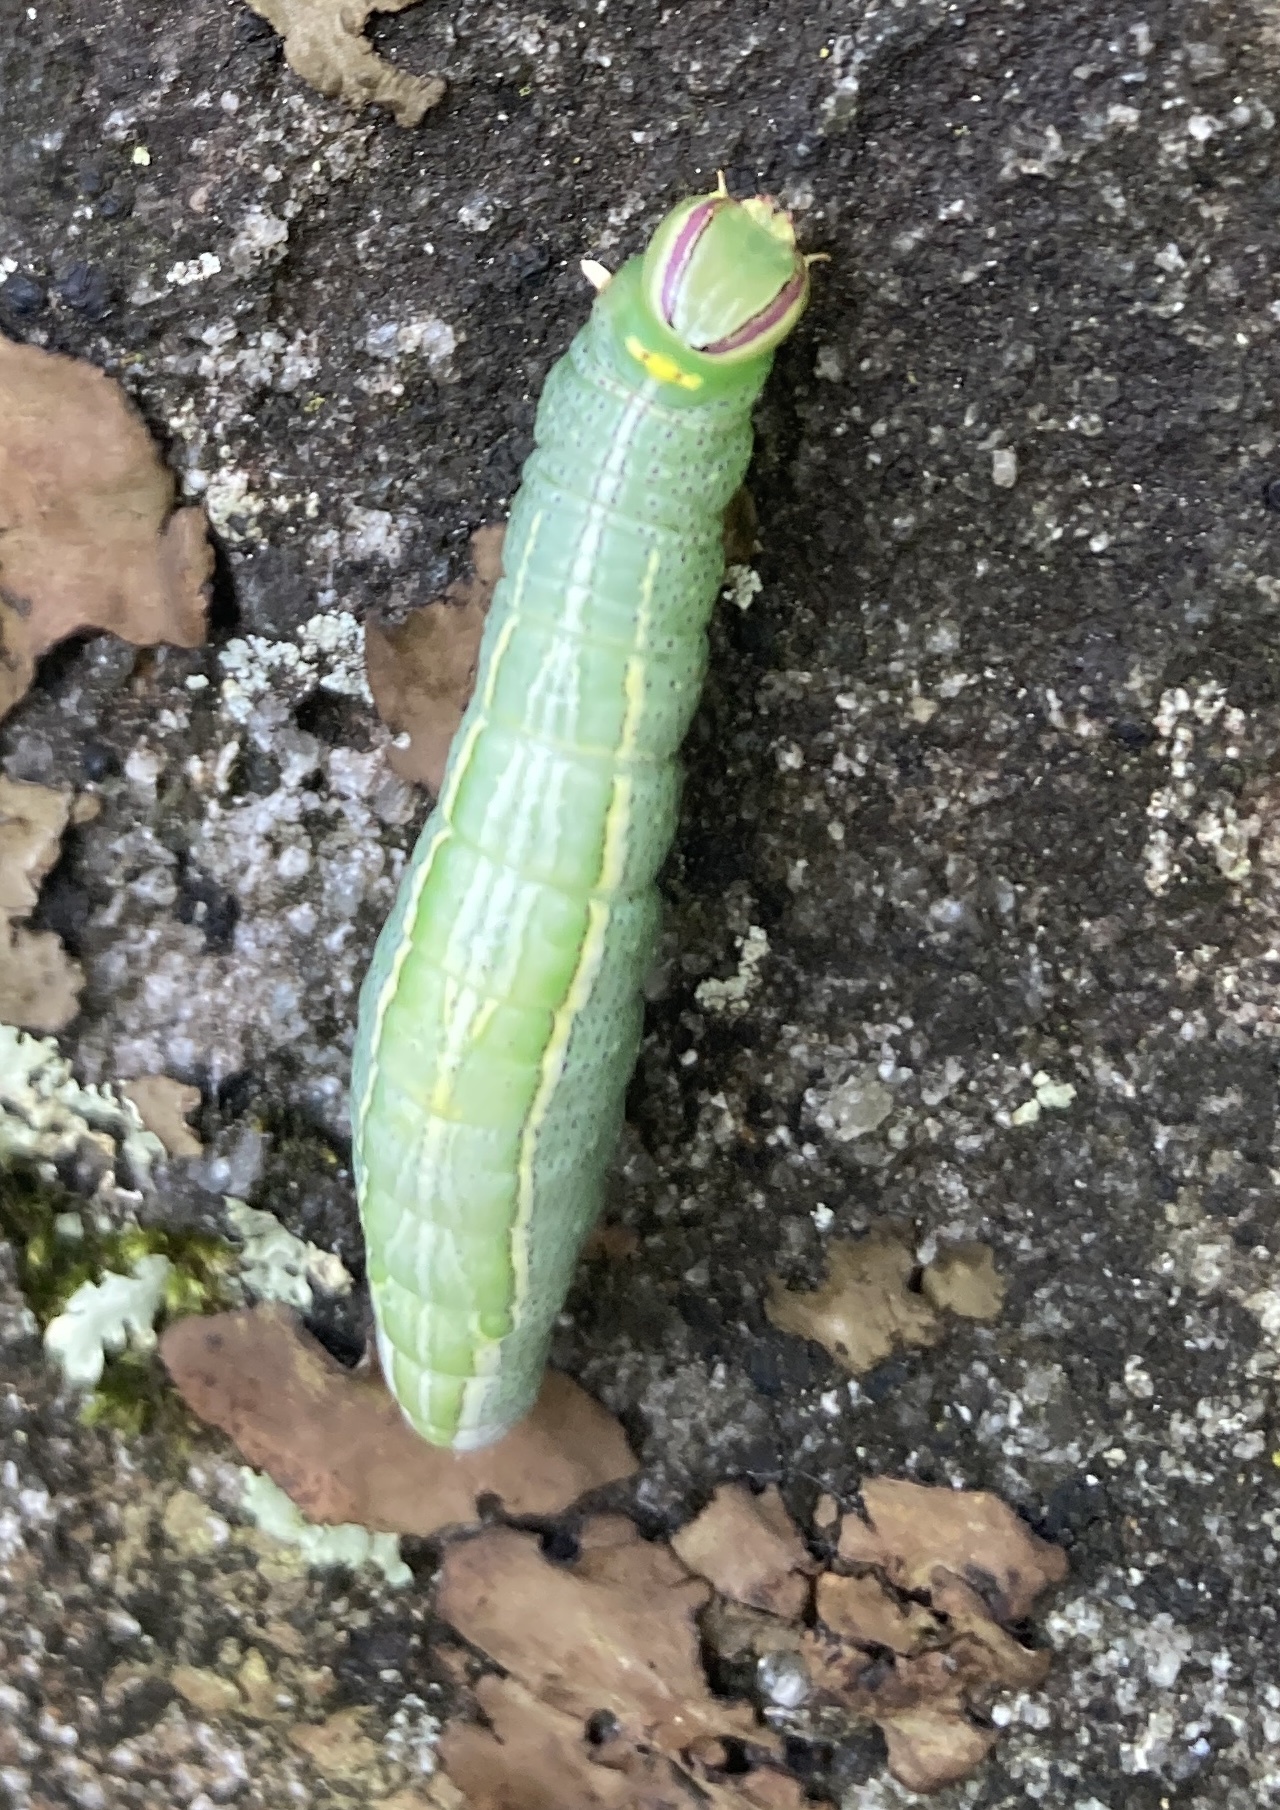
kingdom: Animalia
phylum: Arthropoda
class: Insecta
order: Lepidoptera
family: Notodontidae
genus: Disphragis
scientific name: Disphragis Cecrita guttivitta
